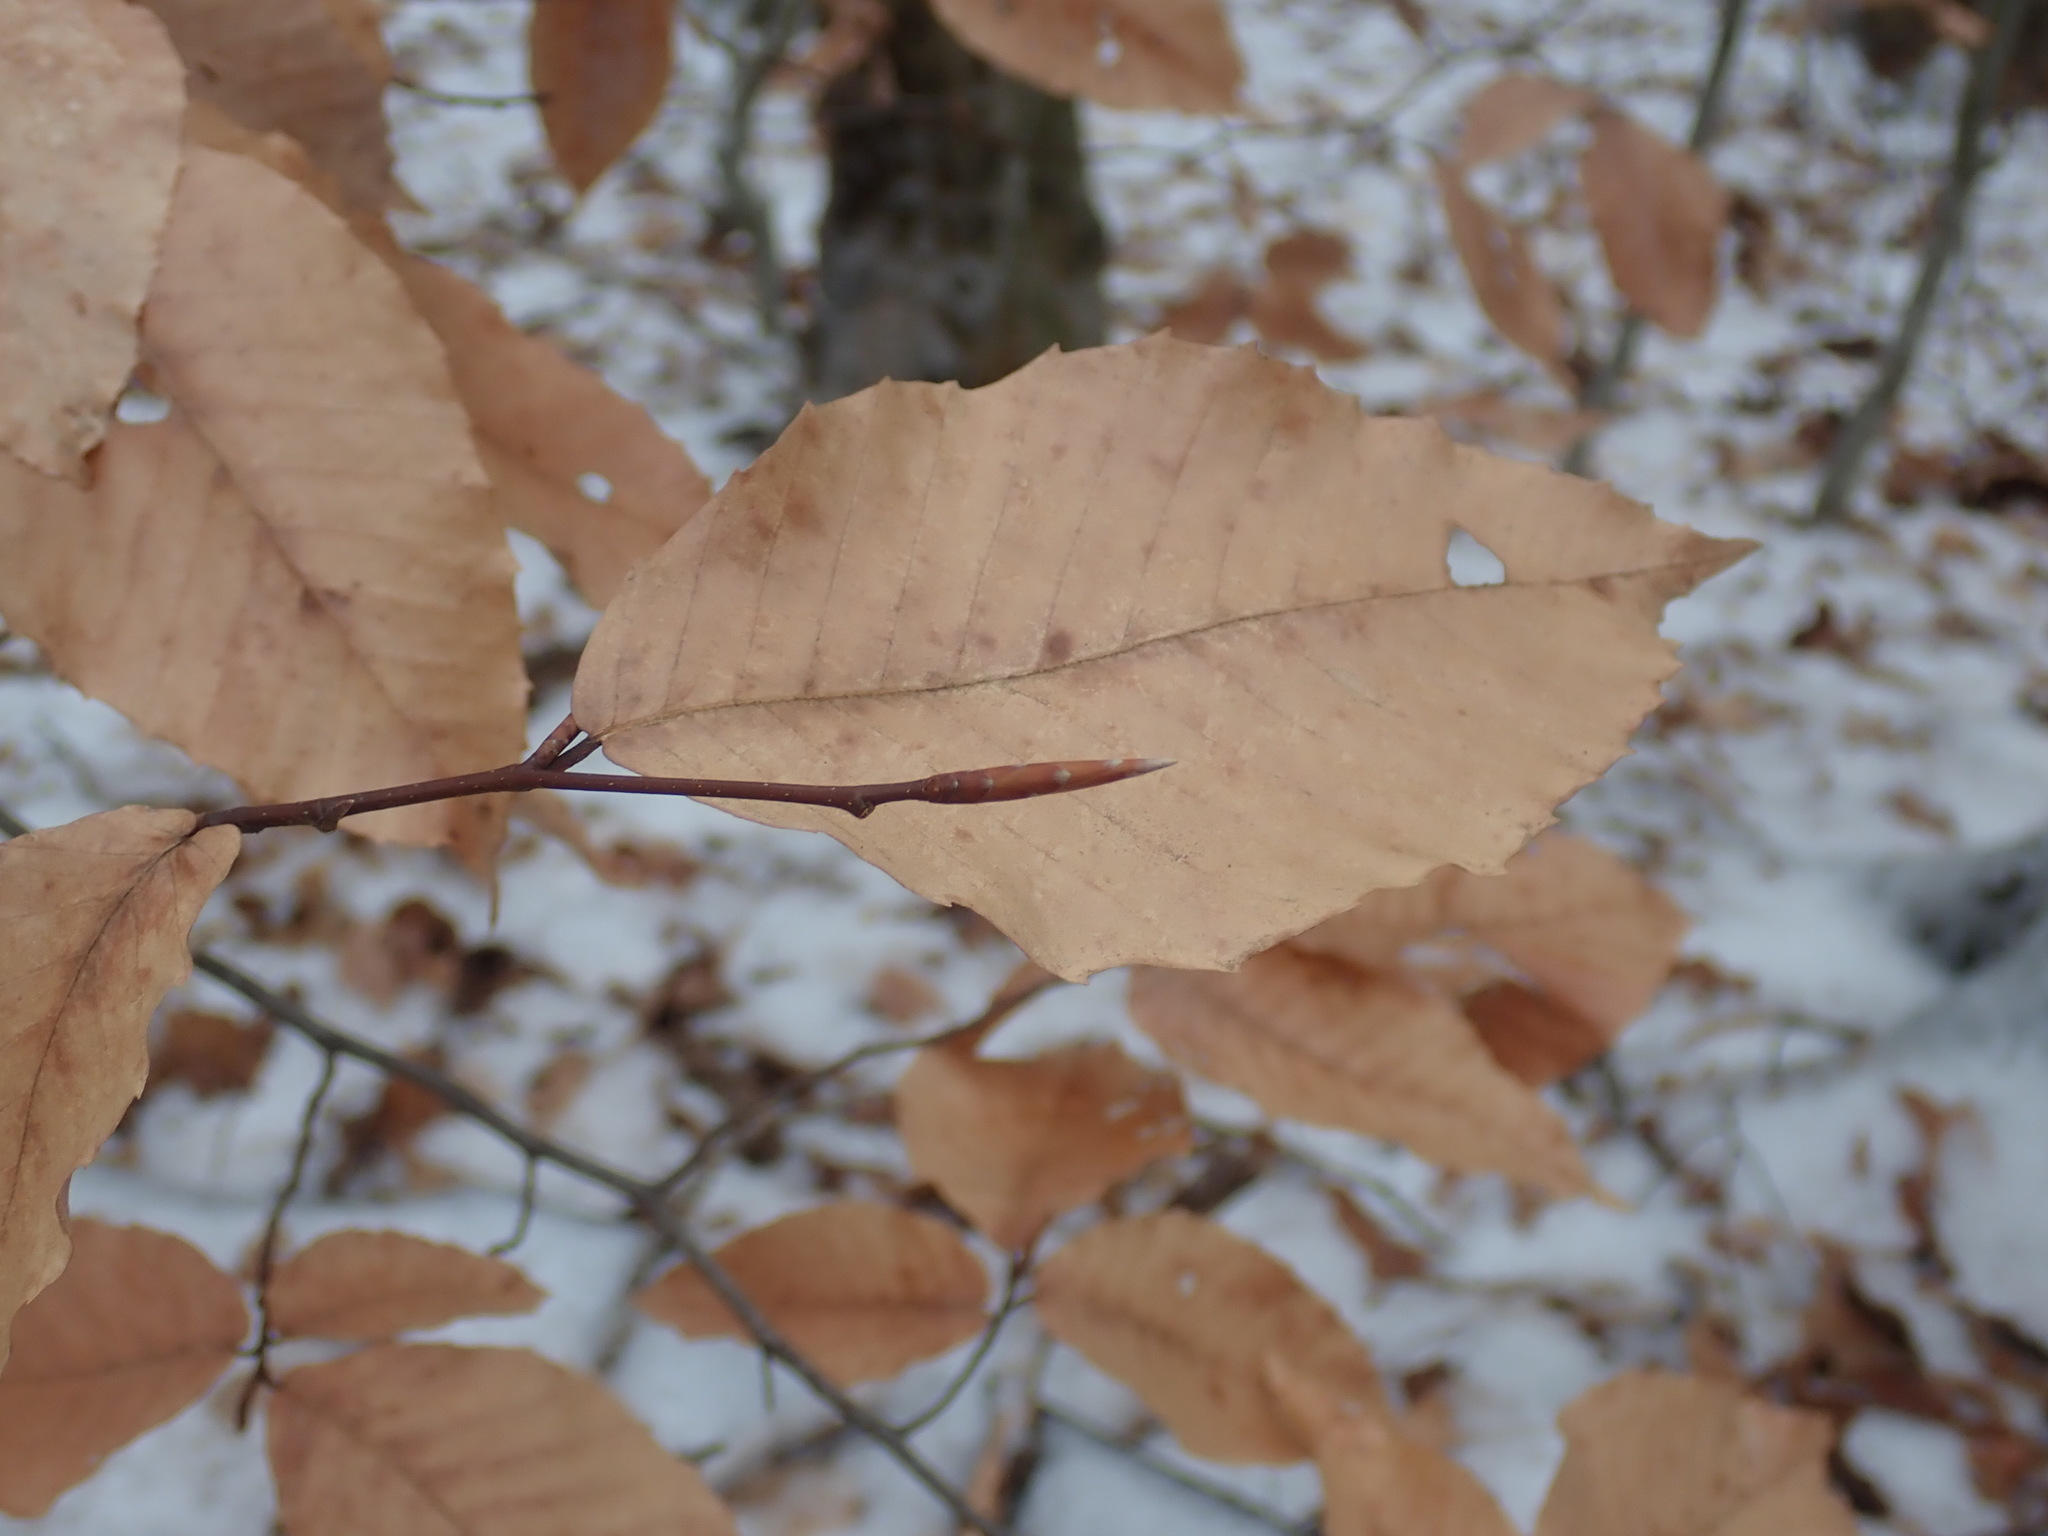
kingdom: Plantae
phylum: Tracheophyta
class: Magnoliopsida
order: Fagales
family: Fagaceae
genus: Fagus
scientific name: Fagus grandifolia
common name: American beech
